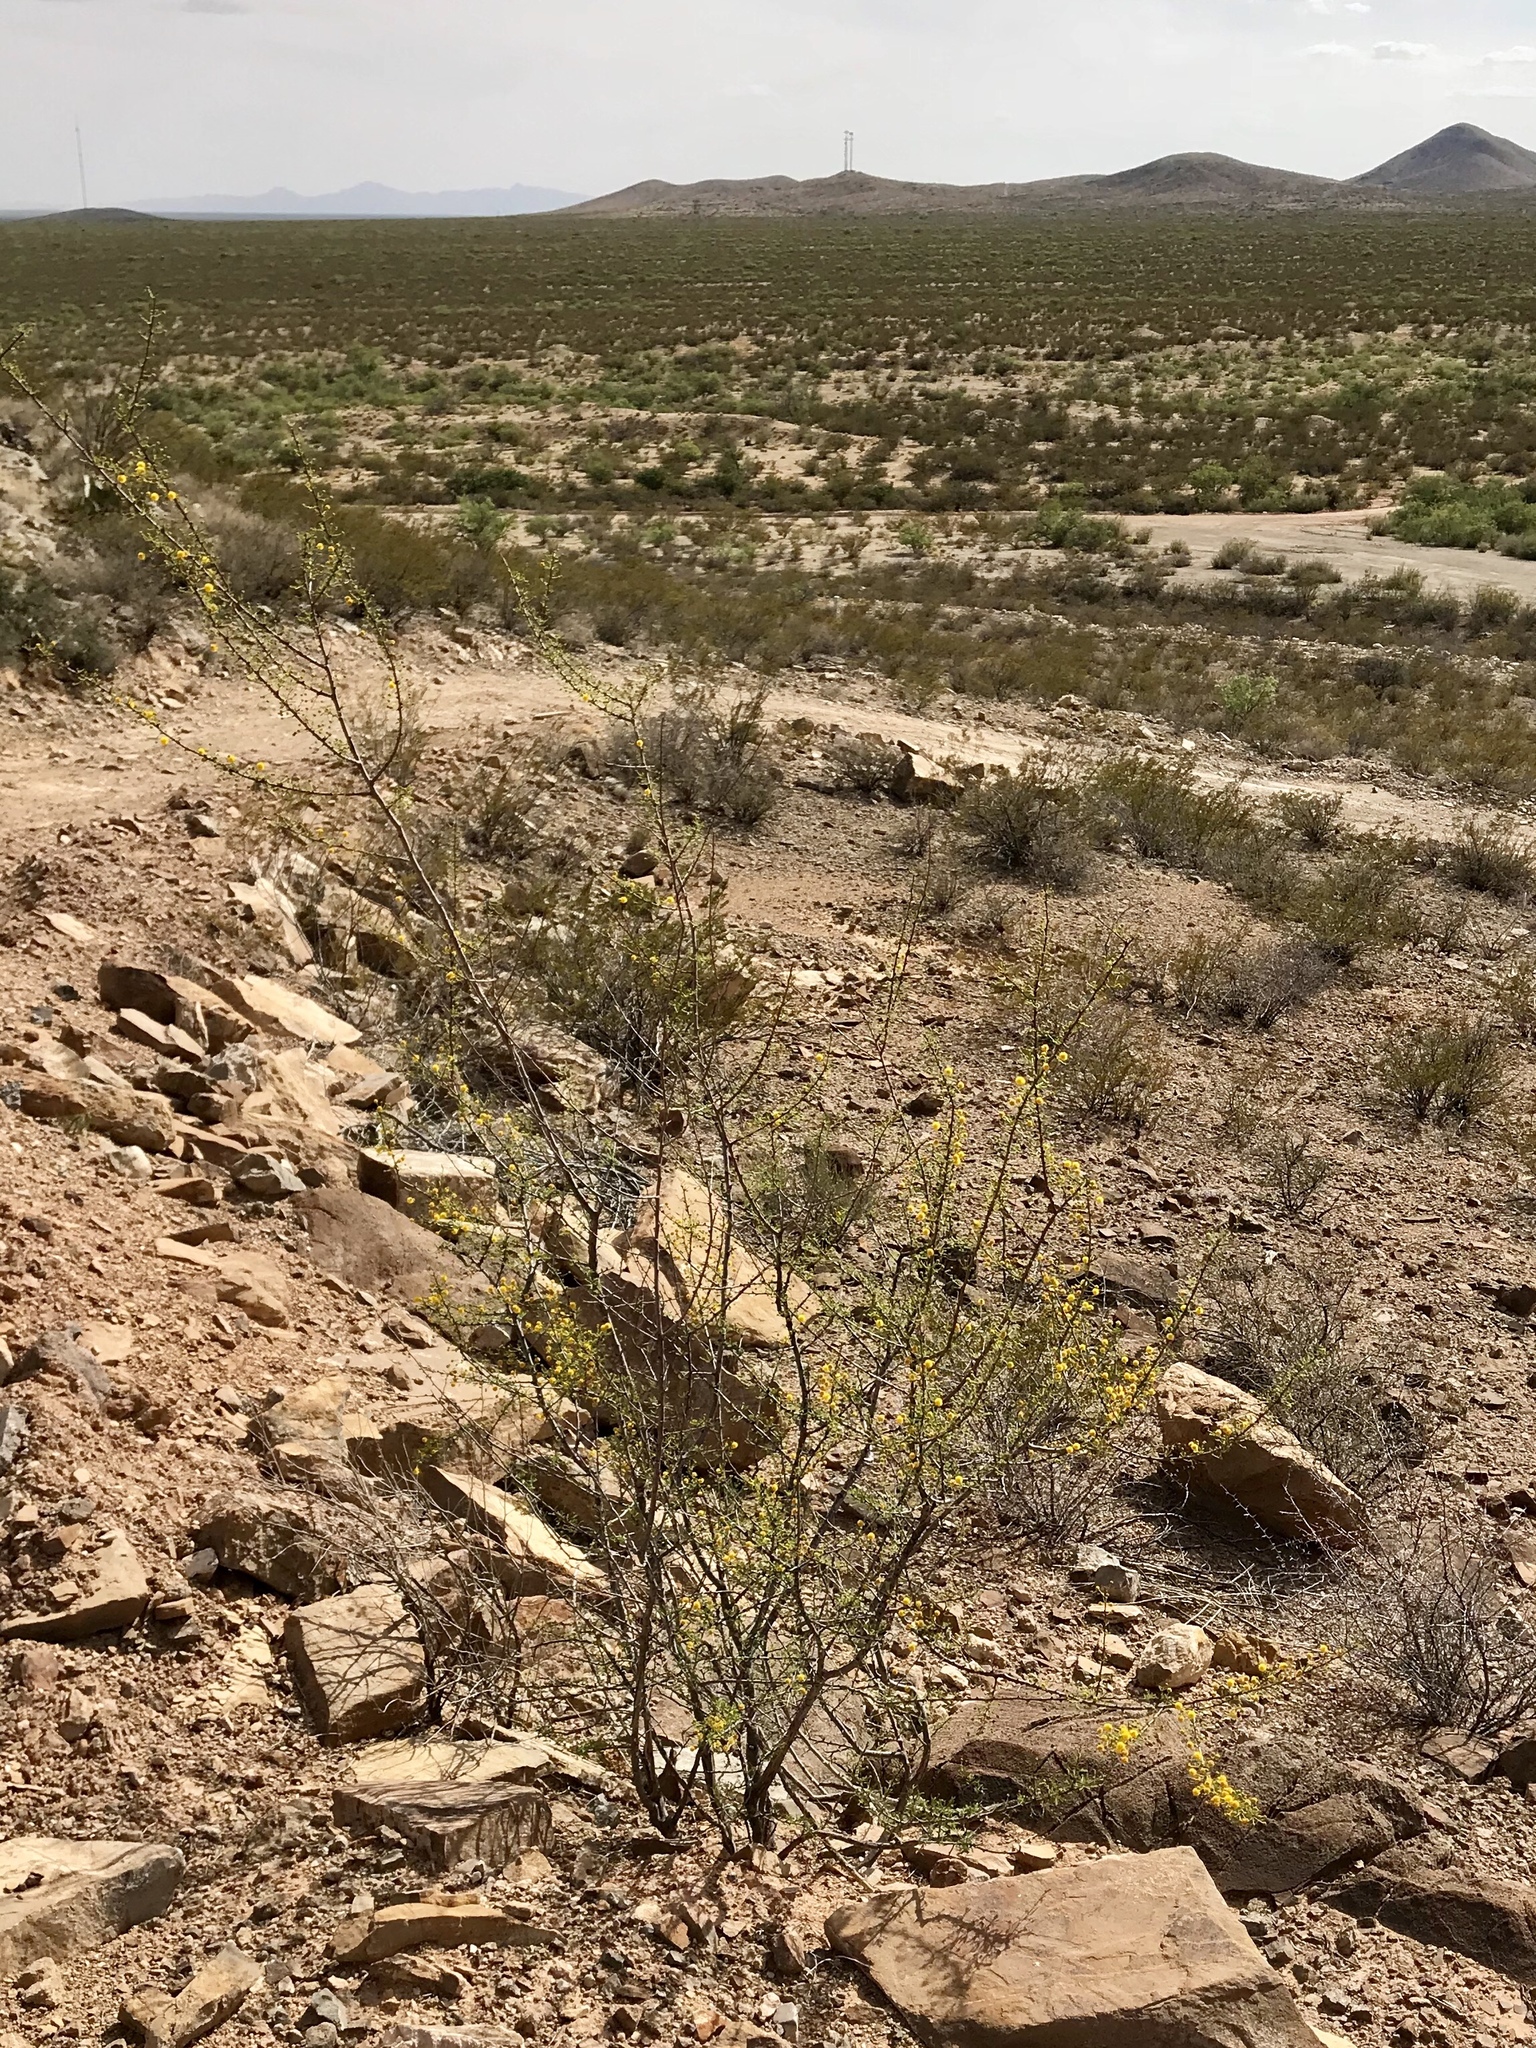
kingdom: Plantae
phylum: Tracheophyta
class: Magnoliopsida
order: Fabales
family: Fabaceae
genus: Vachellia
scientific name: Vachellia constricta
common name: Mescat acacia
